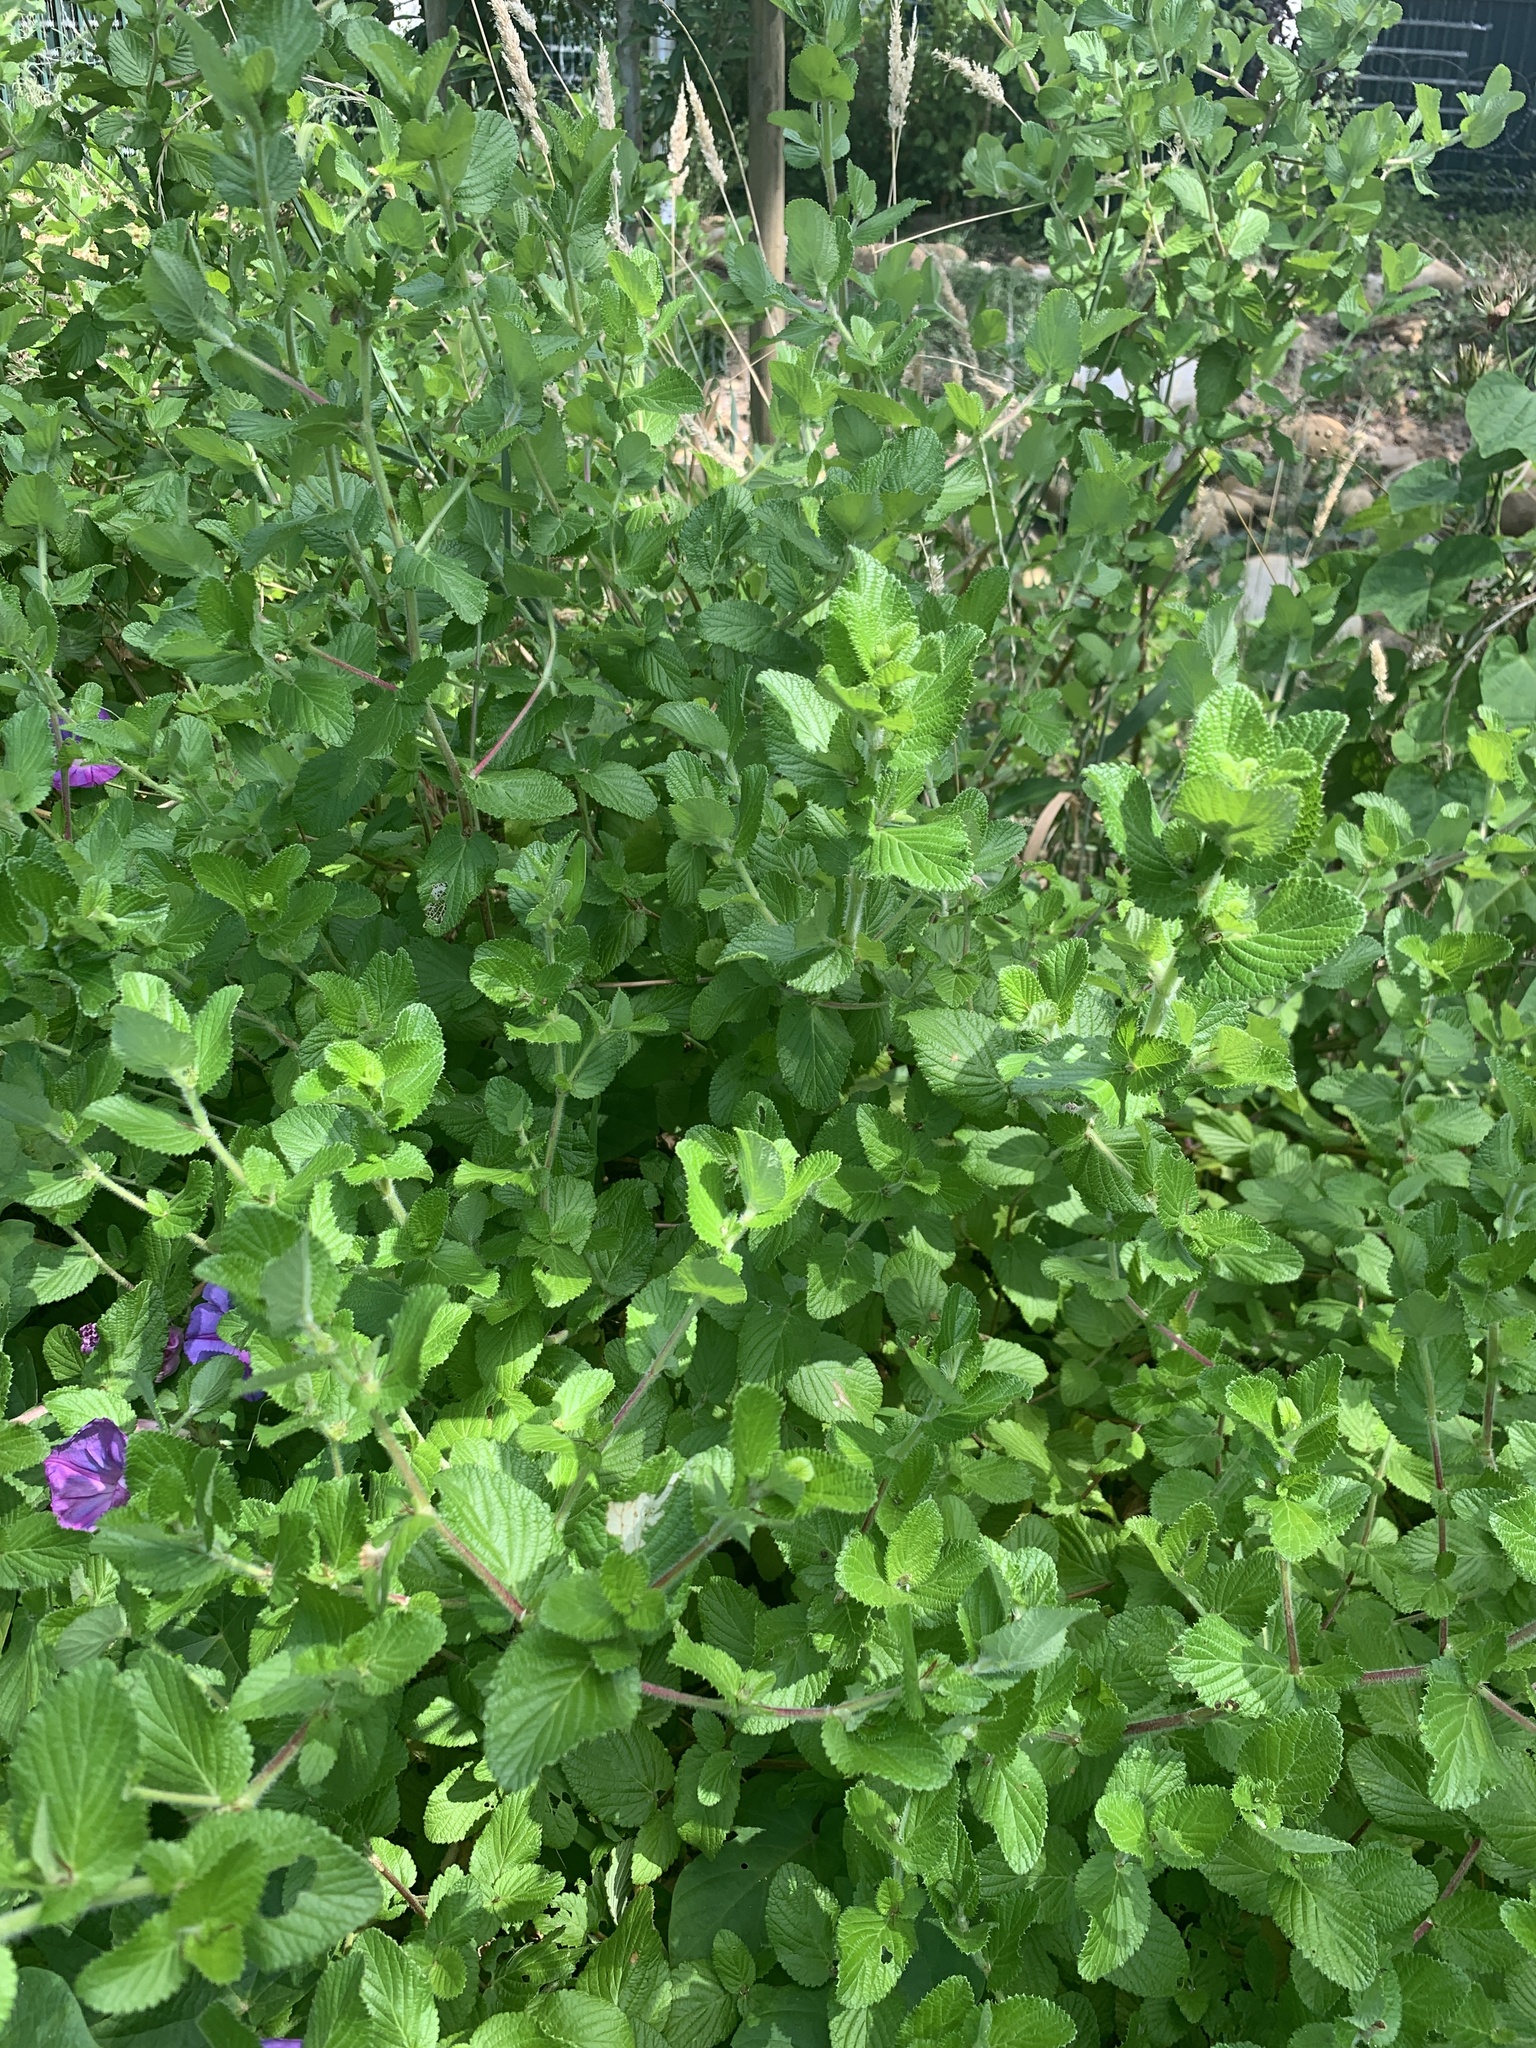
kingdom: Plantae
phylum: Tracheophyta
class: Magnoliopsida
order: Rosales
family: Rosaceae
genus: Cliffortia
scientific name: Cliffortia odorata
